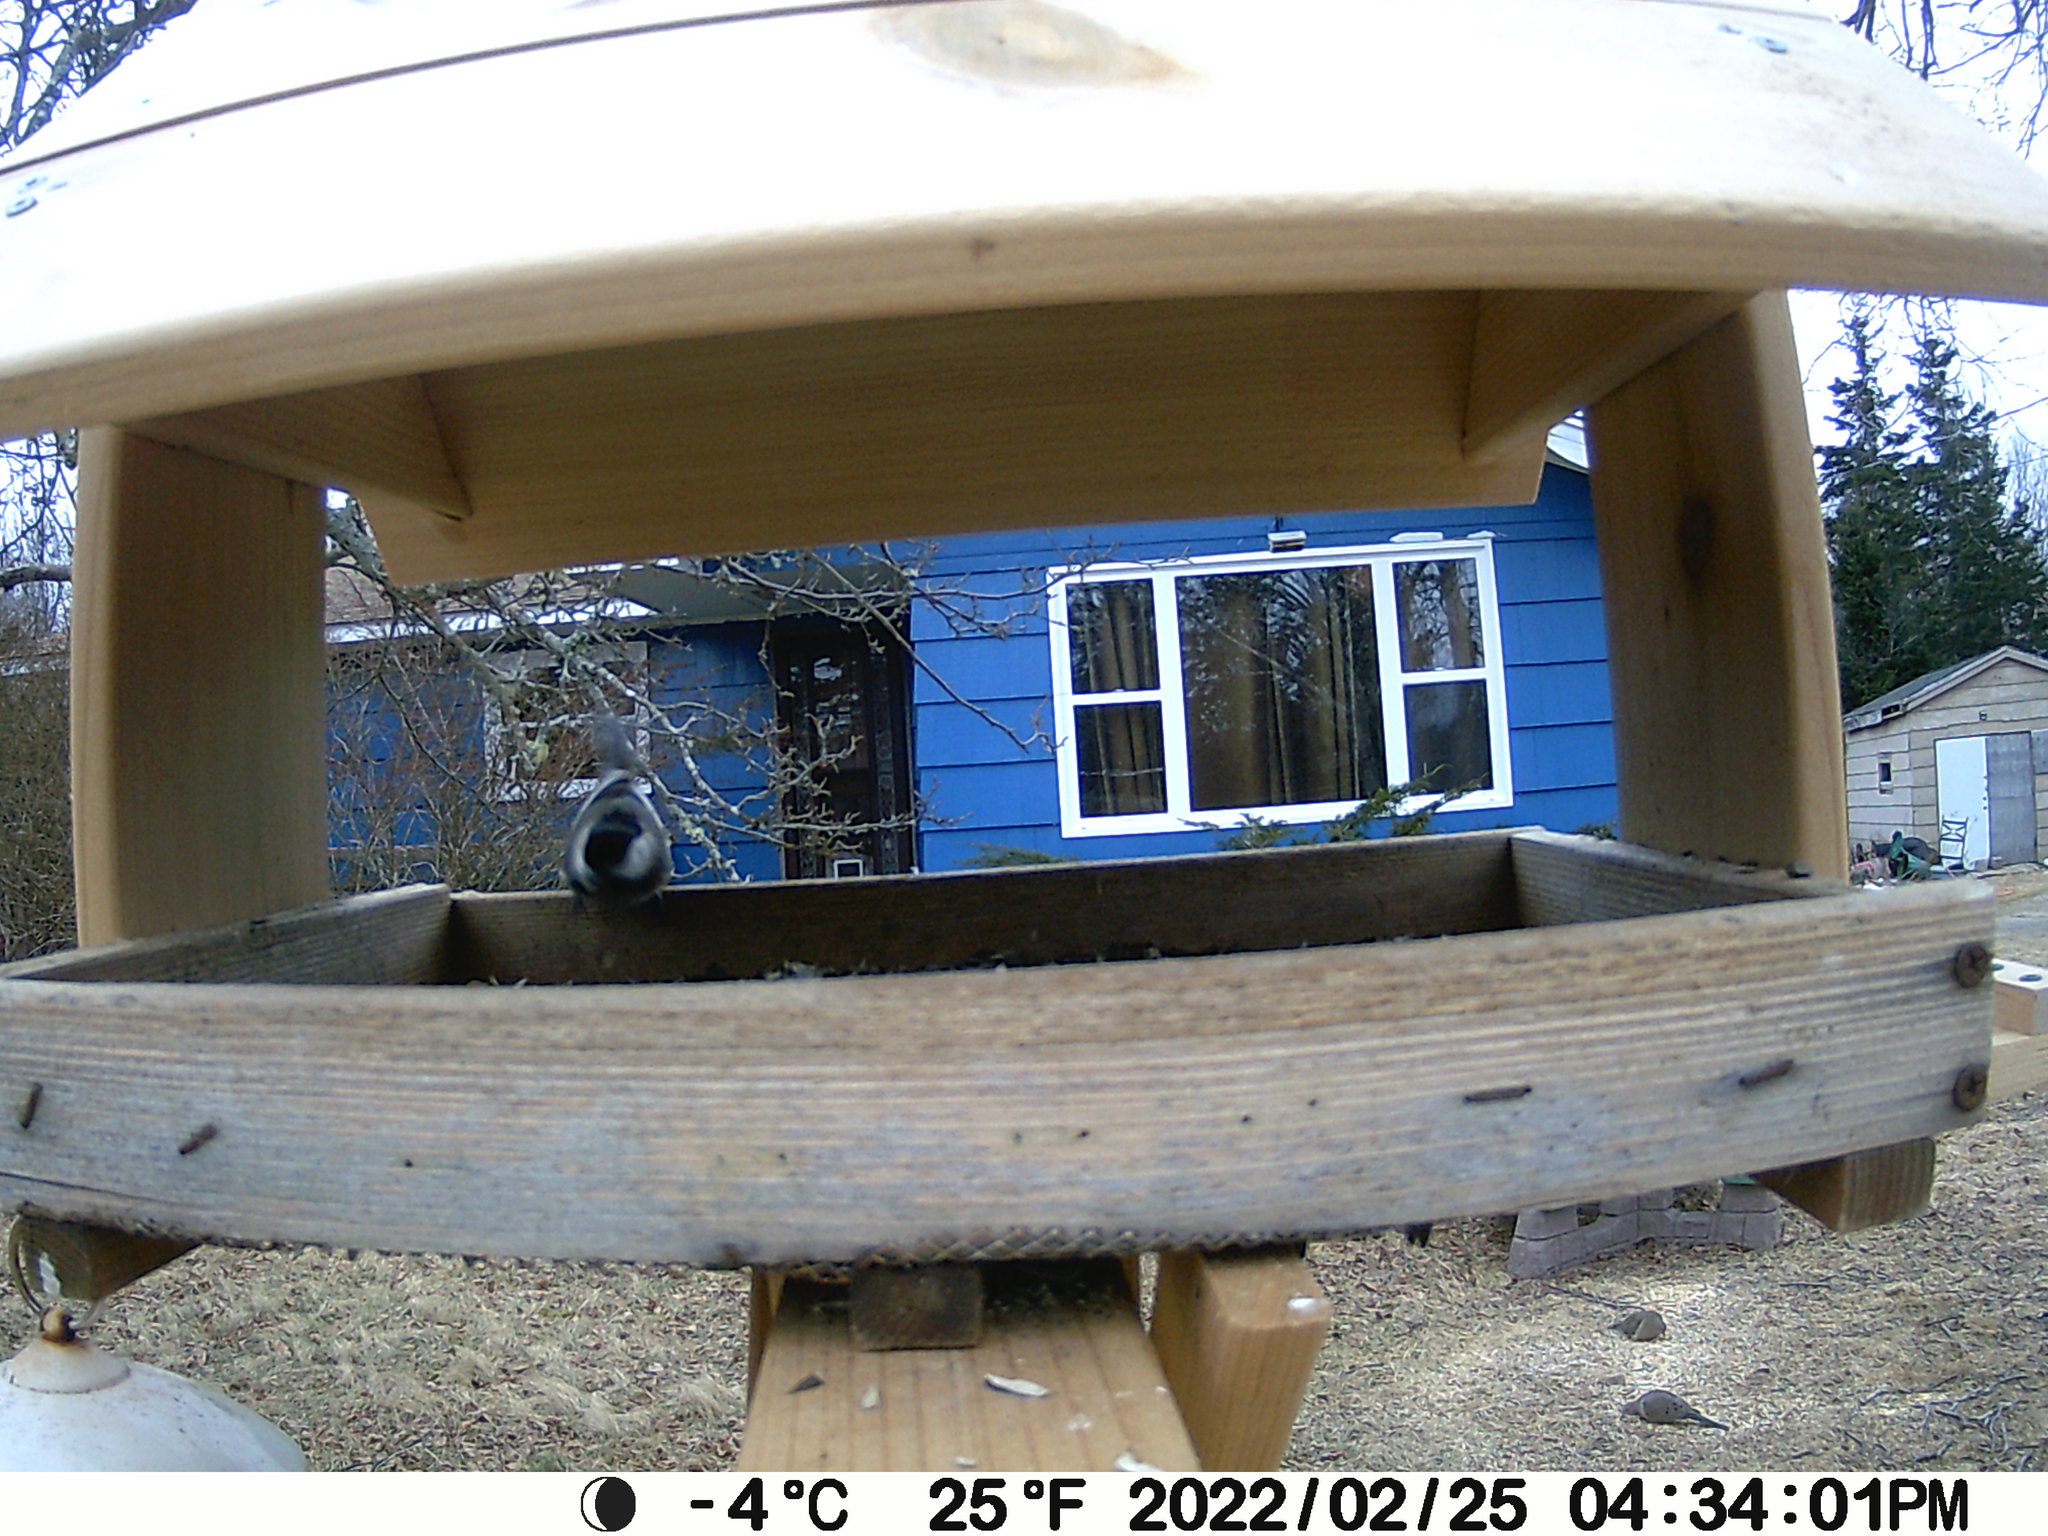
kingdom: Animalia
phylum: Chordata
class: Aves
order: Columbiformes
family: Columbidae
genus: Zenaida
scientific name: Zenaida macroura
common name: Mourning dove
